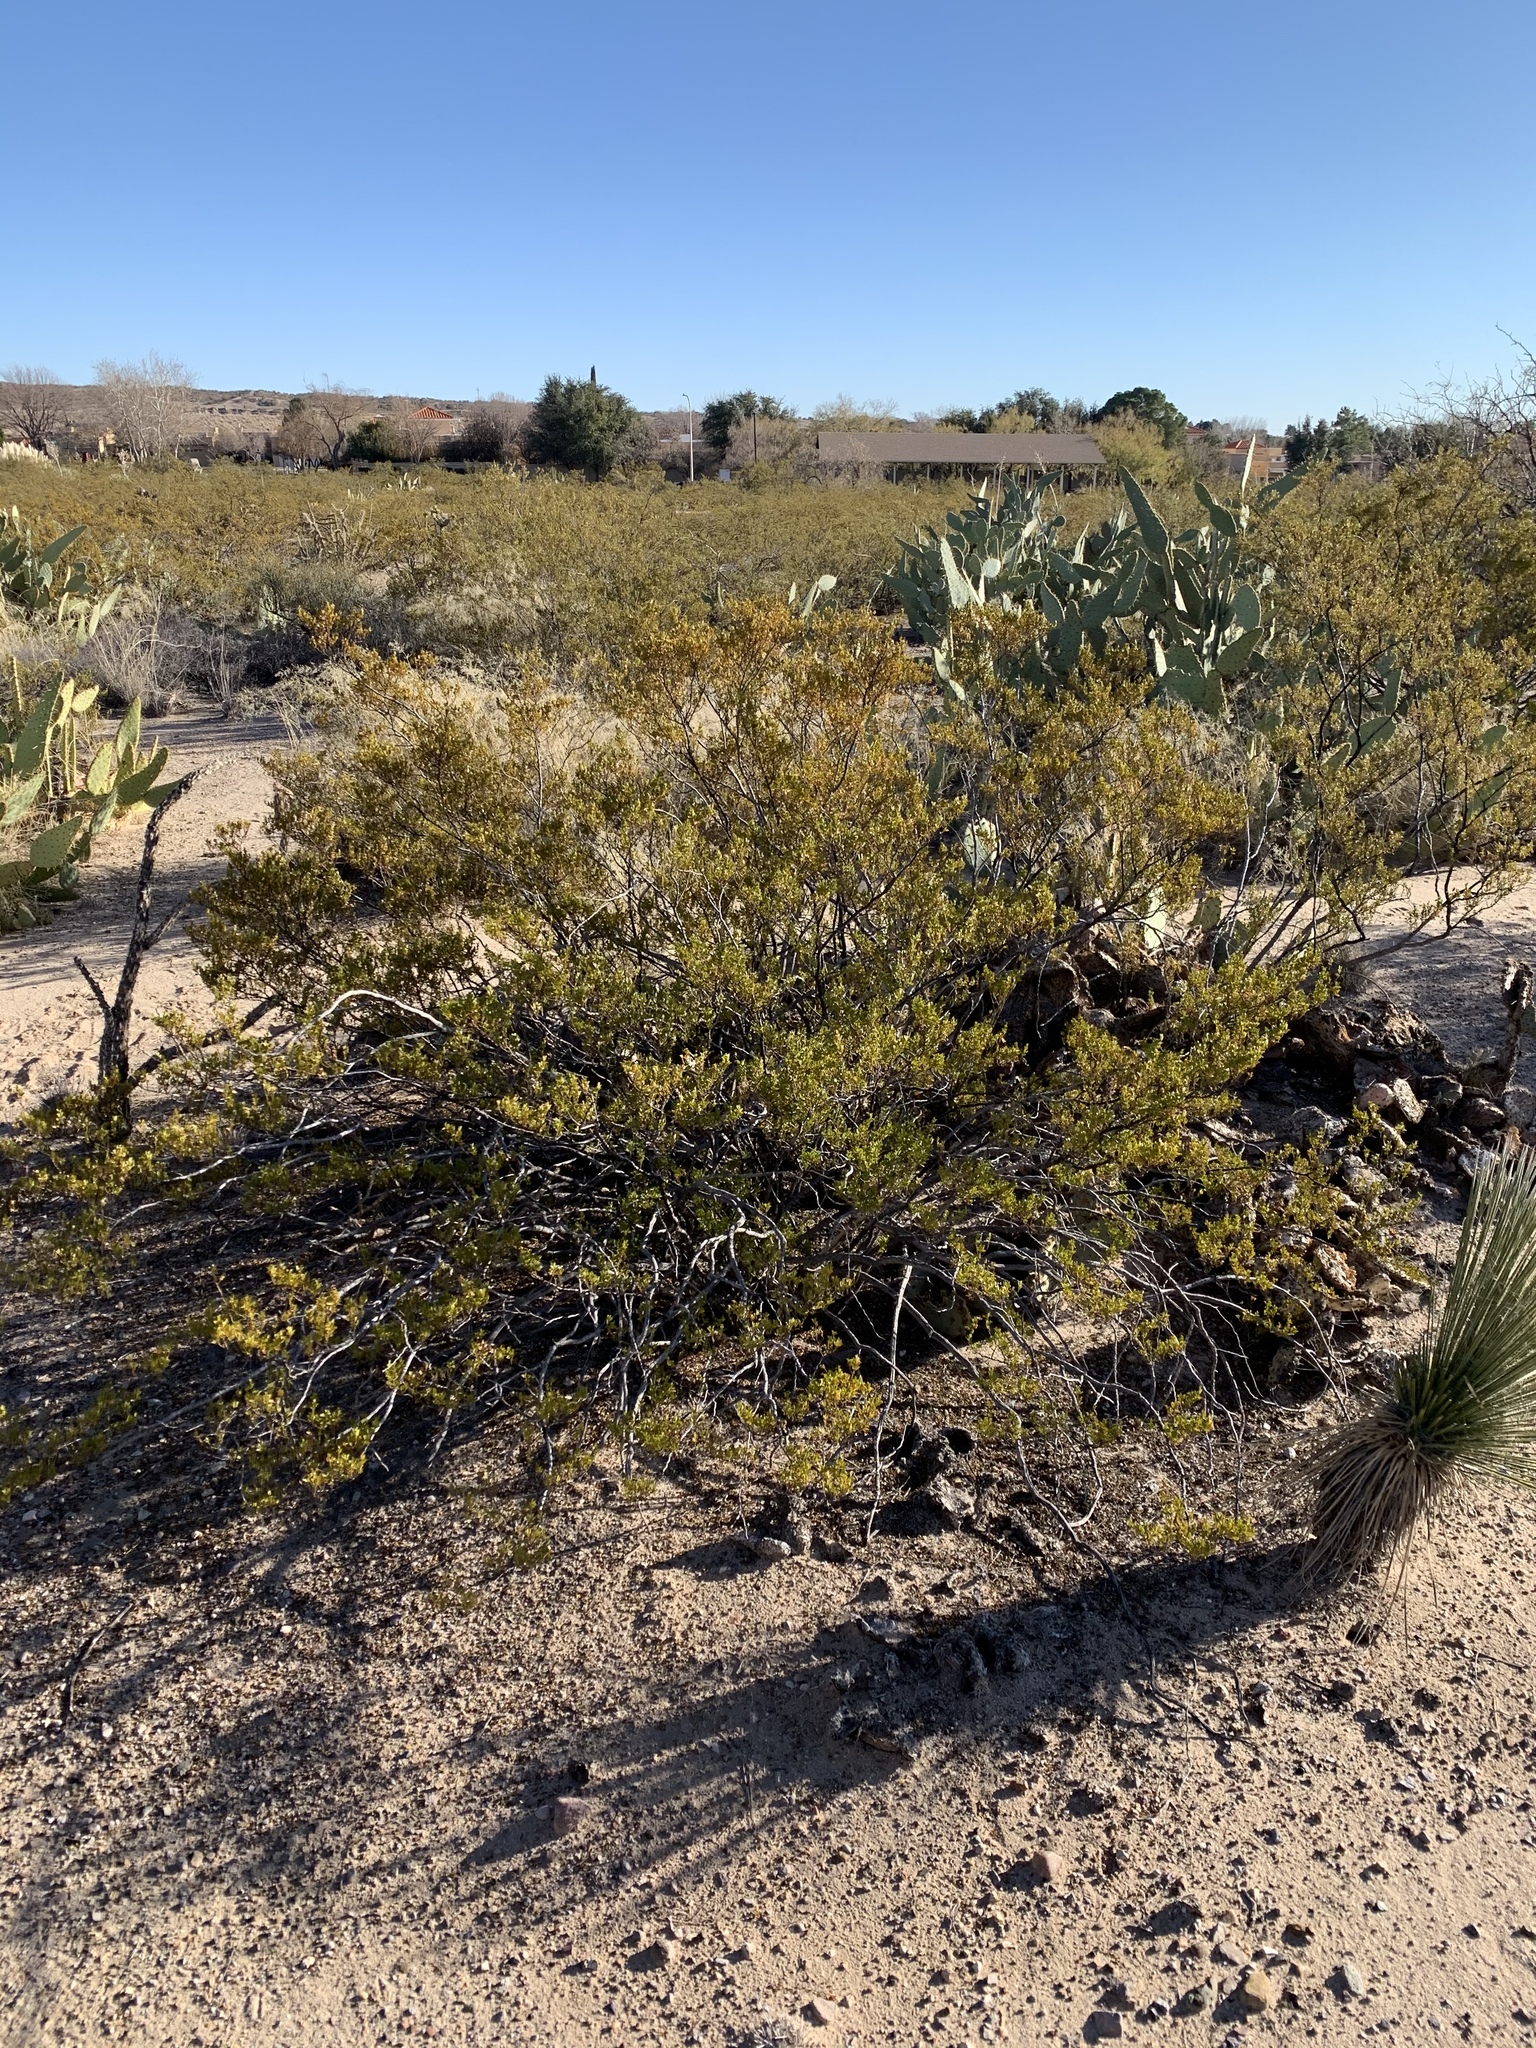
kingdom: Plantae
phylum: Tracheophyta
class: Magnoliopsida
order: Zygophyllales
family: Zygophyllaceae
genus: Larrea
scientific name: Larrea tridentata
